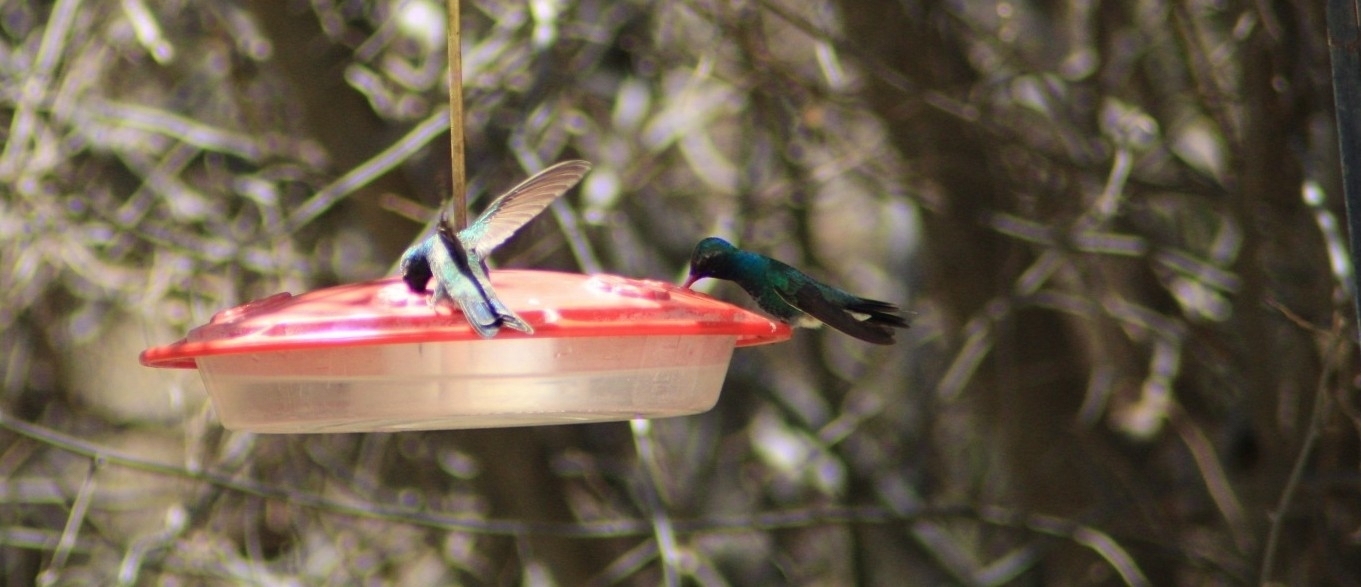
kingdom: Animalia
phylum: Chordata
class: Aves
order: Apodiformes
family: Trochilidae
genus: Cynanthus
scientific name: Cynanthus latirostris
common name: Broad-billed hummingbird
